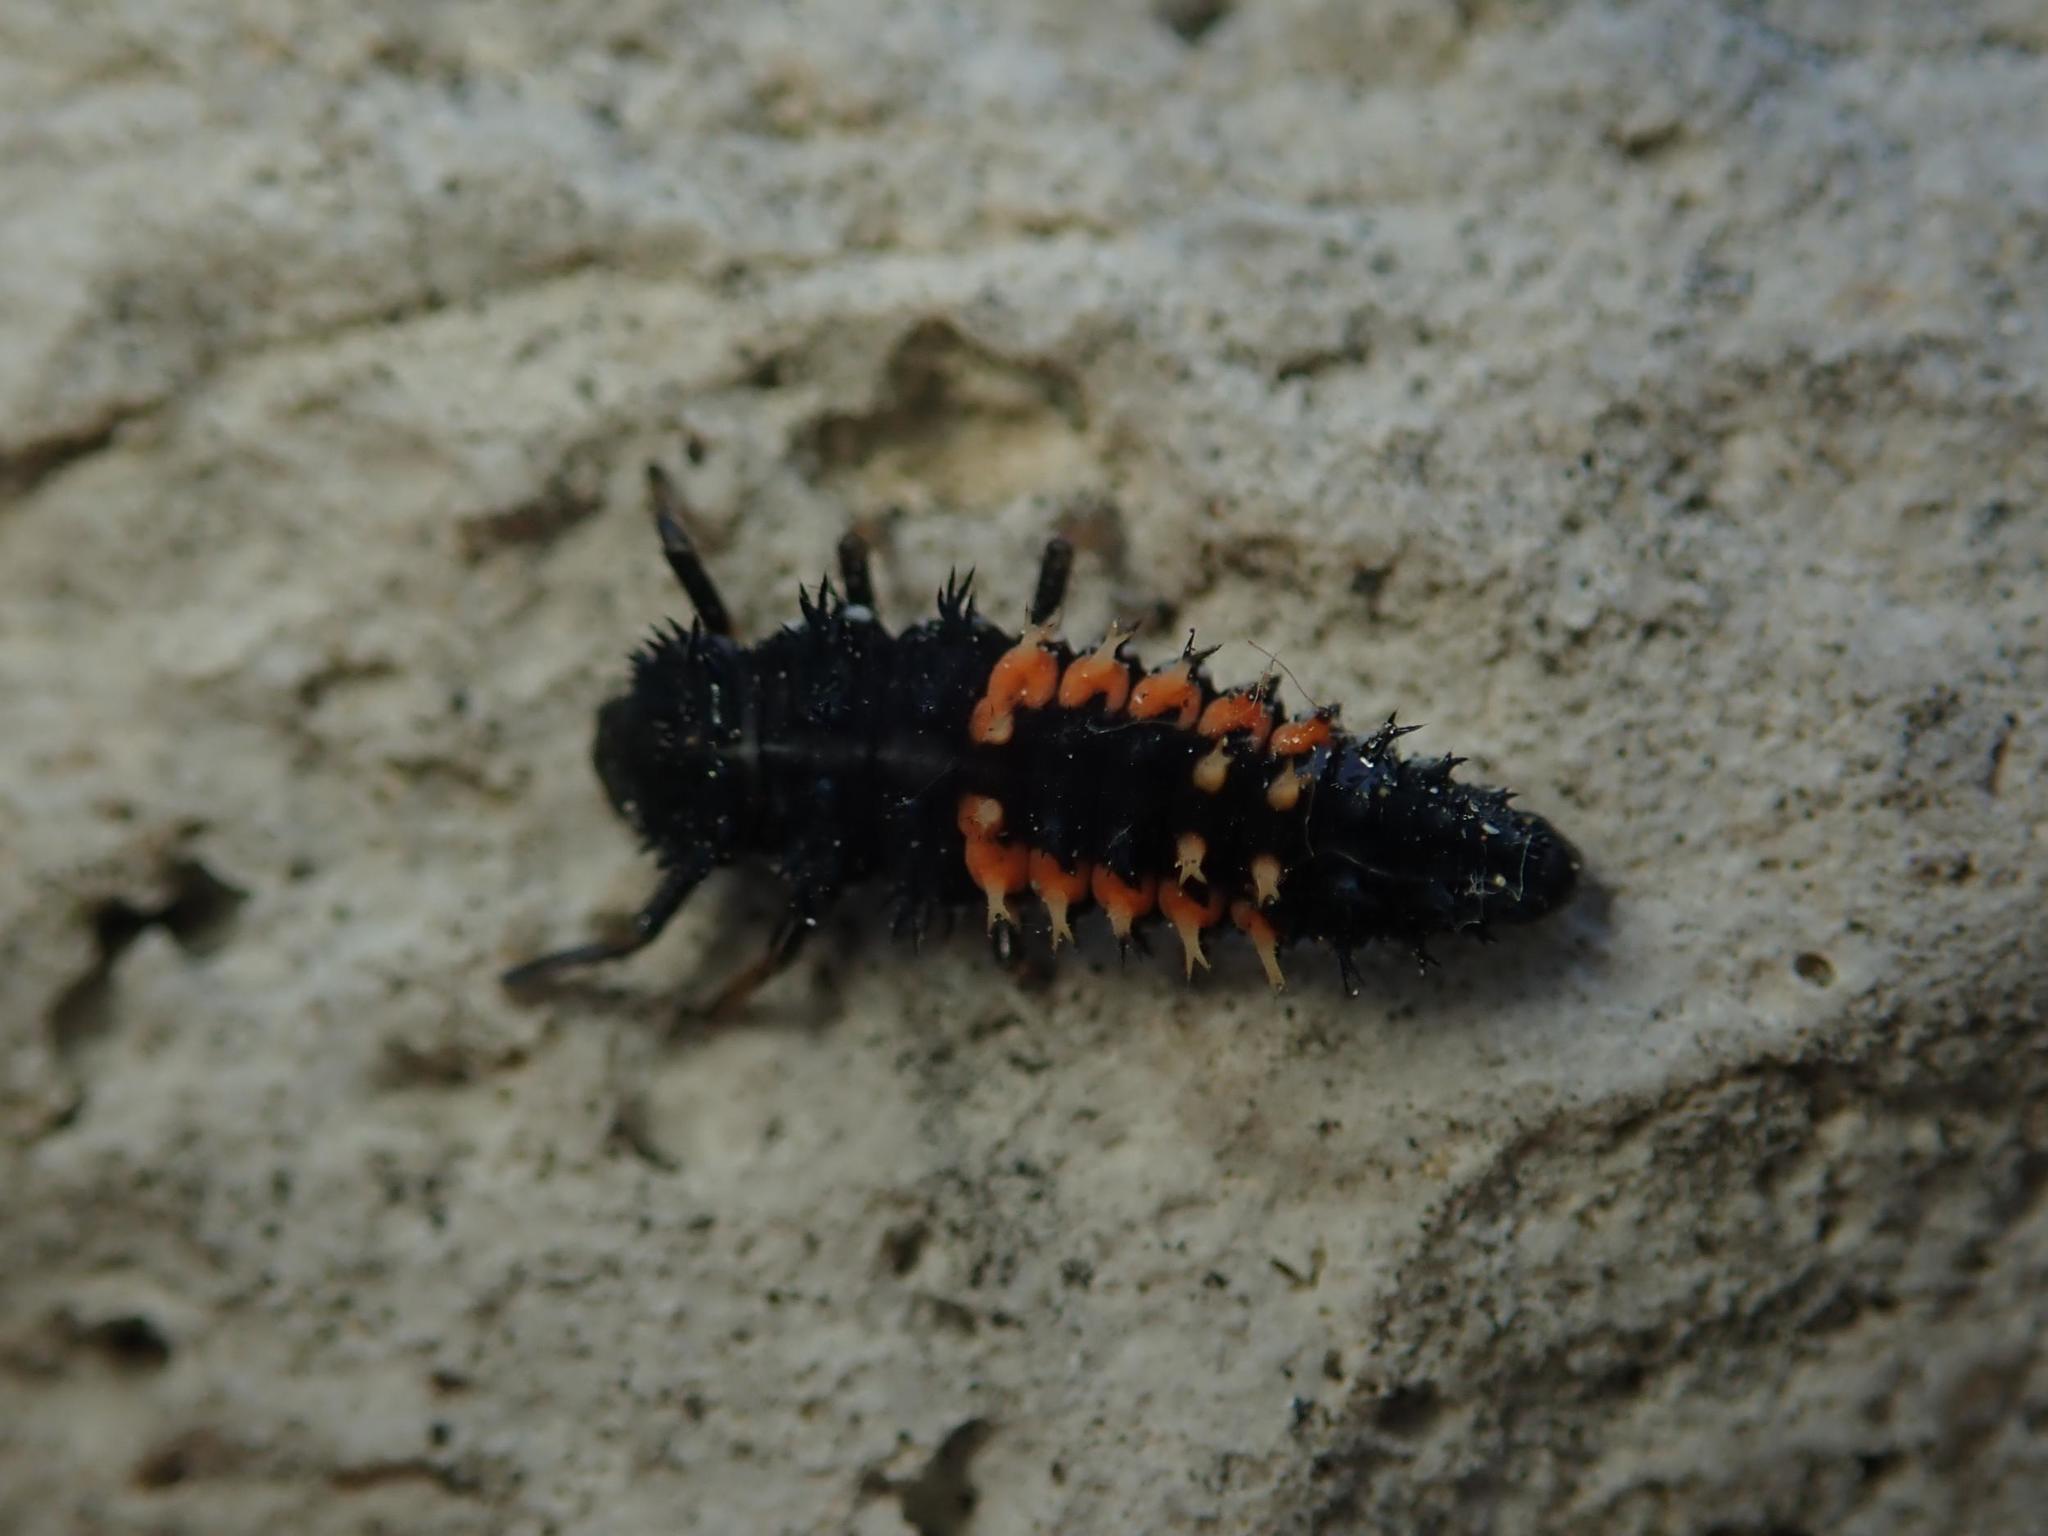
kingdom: Animalia
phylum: Arthropoda
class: Insecta
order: Coleoptera
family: Coccinellidae
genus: Harmonia
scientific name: Harmonia axyridis
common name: Harlequin ladybird
